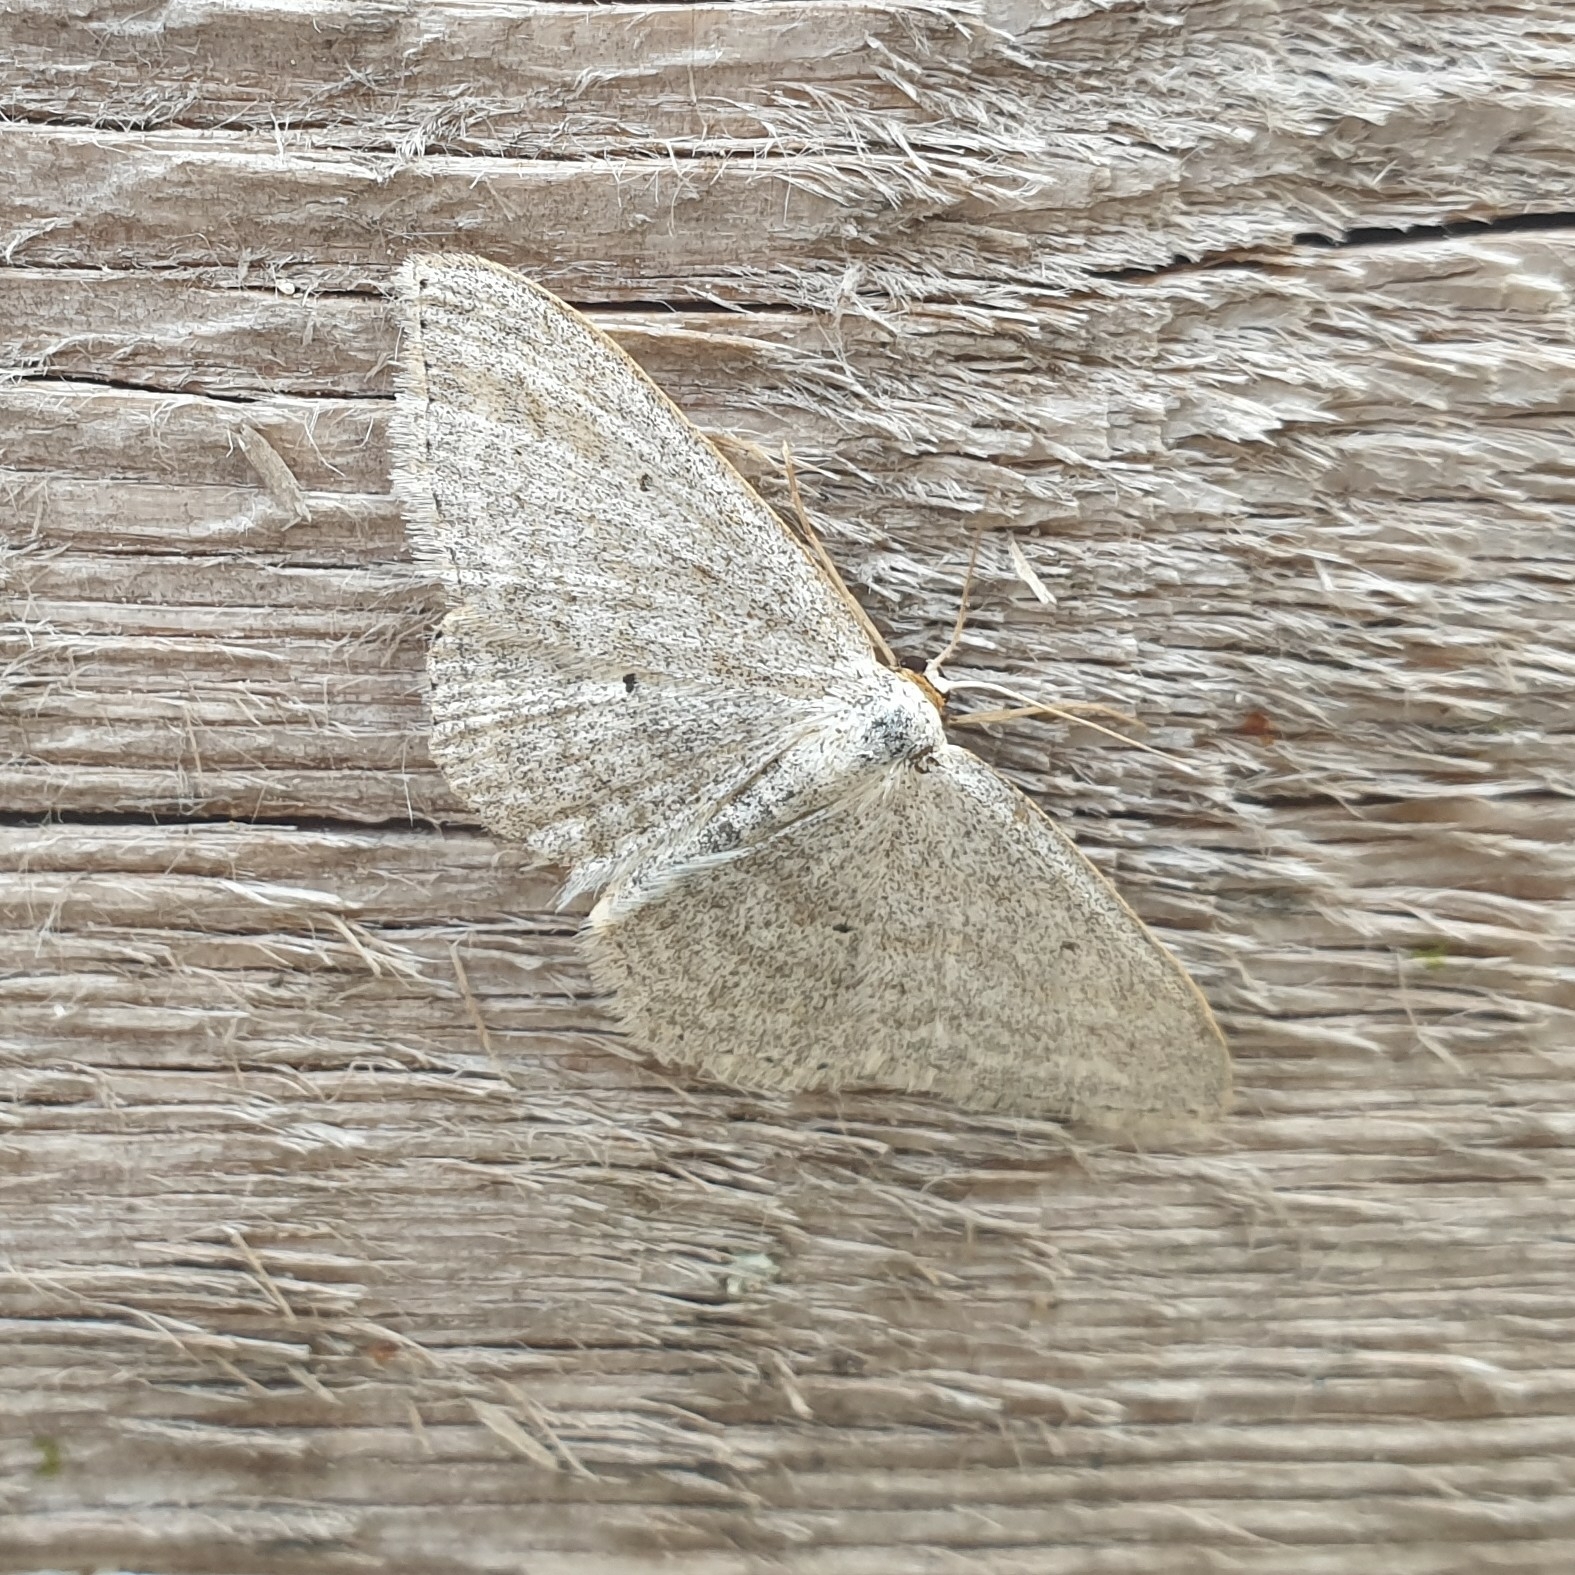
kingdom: Animalia
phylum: Arthropoda
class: Insecta
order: Lepidoptera
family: Geometridae
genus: Scopula
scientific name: Scopula incanata
